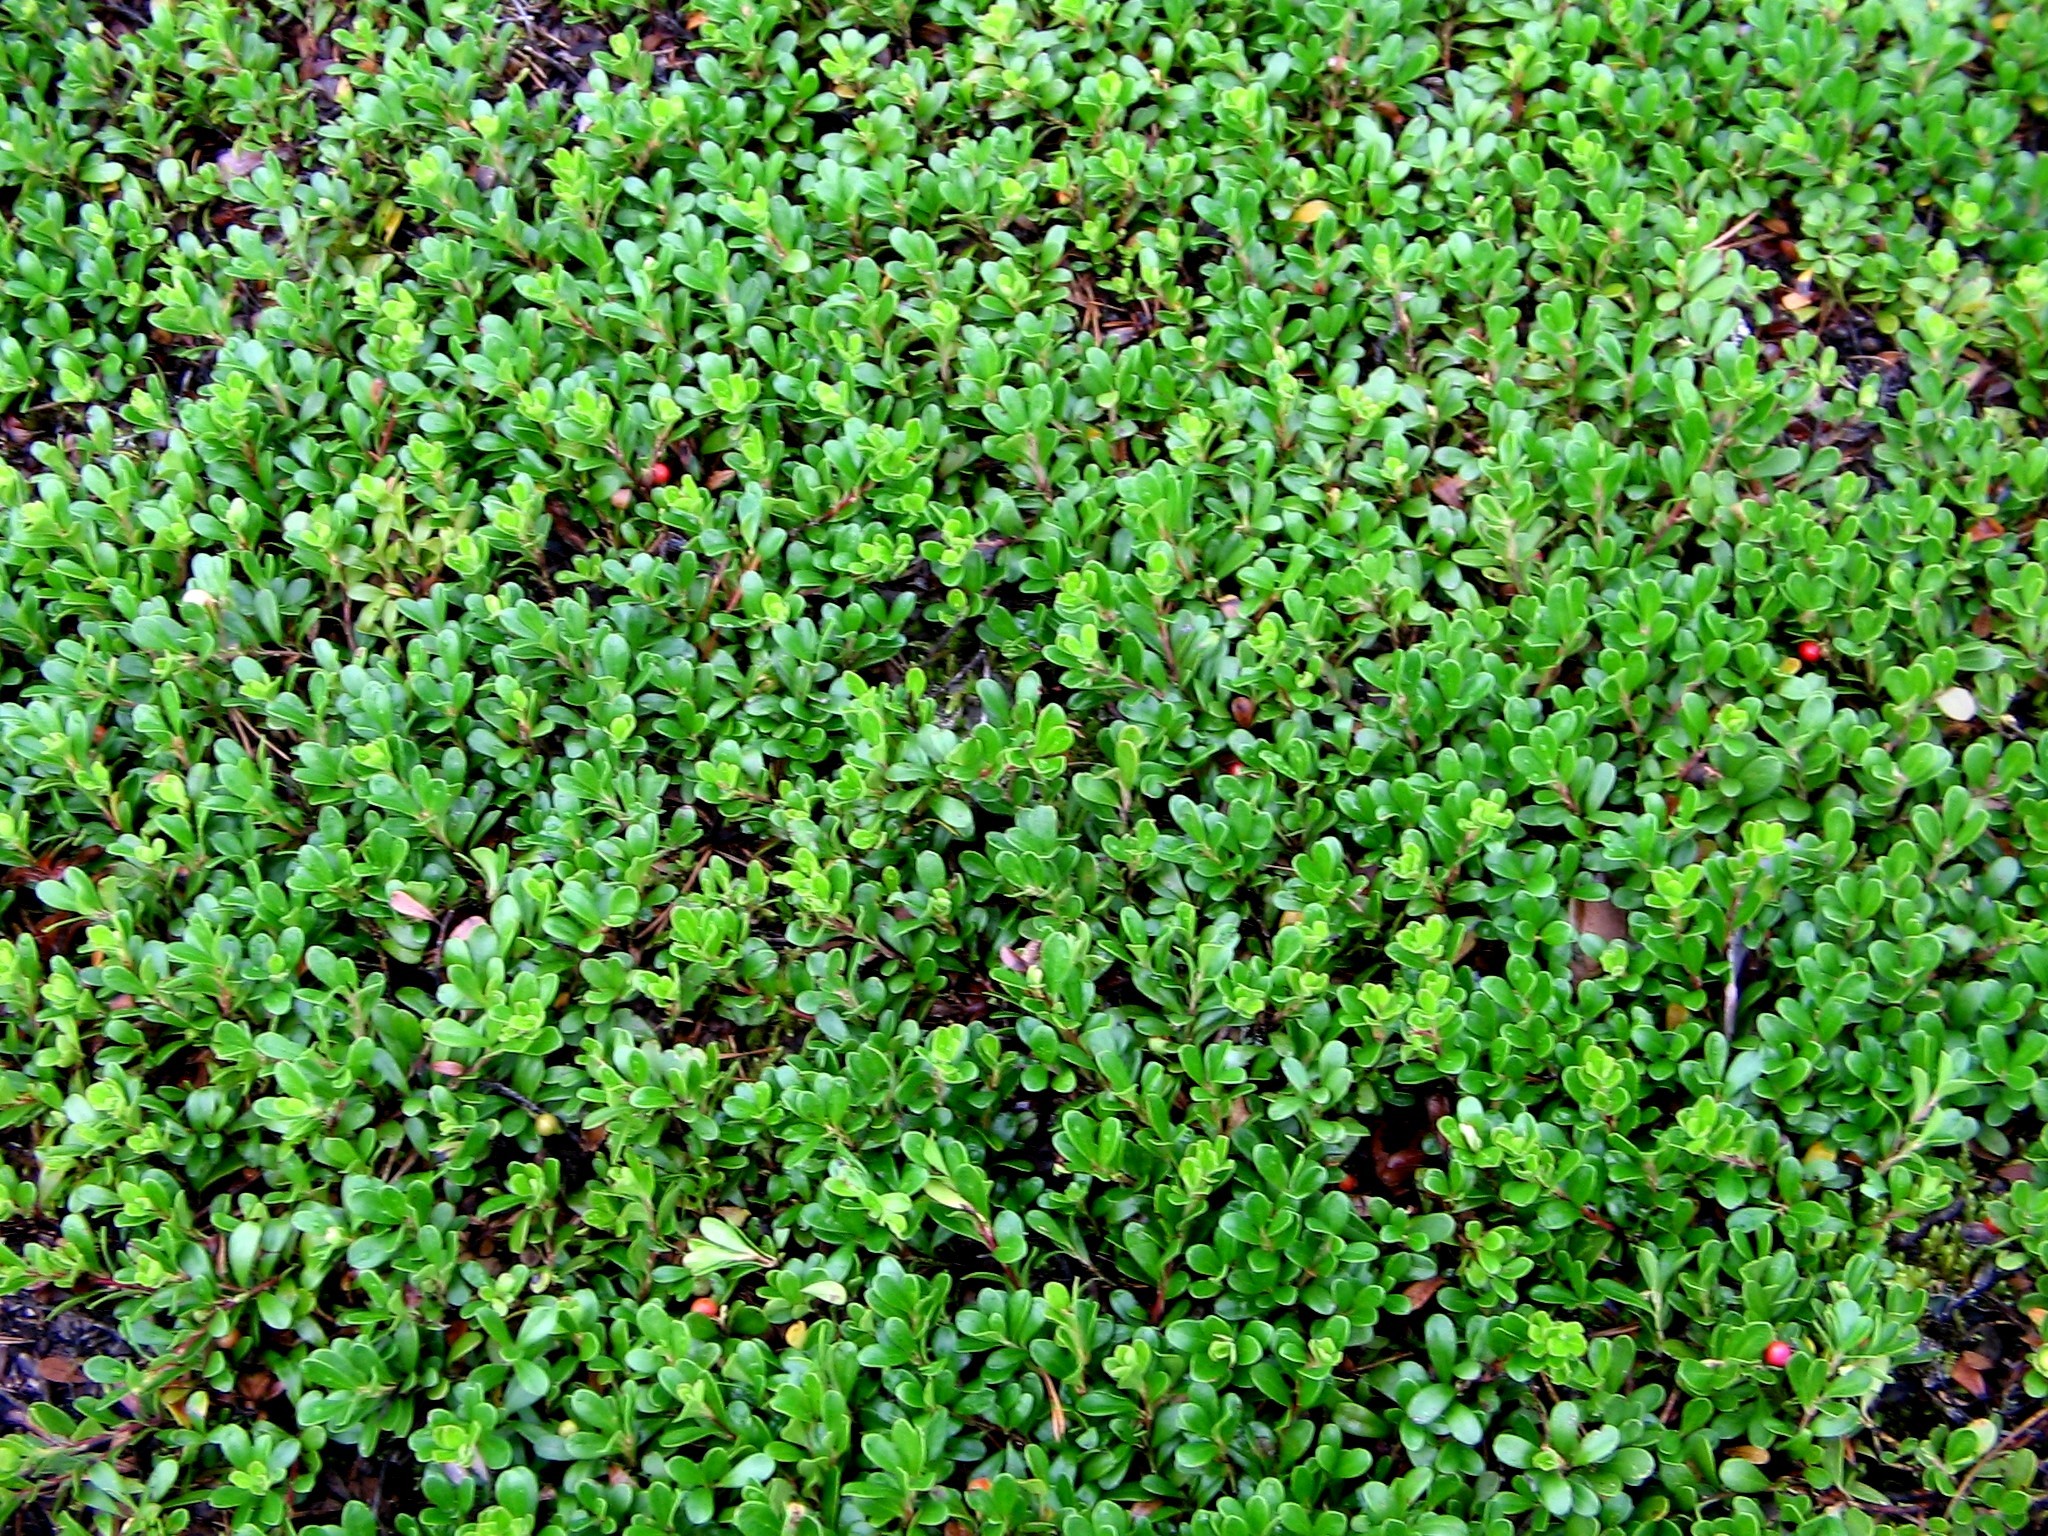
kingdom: Plantae
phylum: Tracheophyta
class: Magnoliopsida
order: Ericales
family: Ericaceae
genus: Arctostaphylos
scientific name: Arctostaphylos uva-ursi
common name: Bearberry
